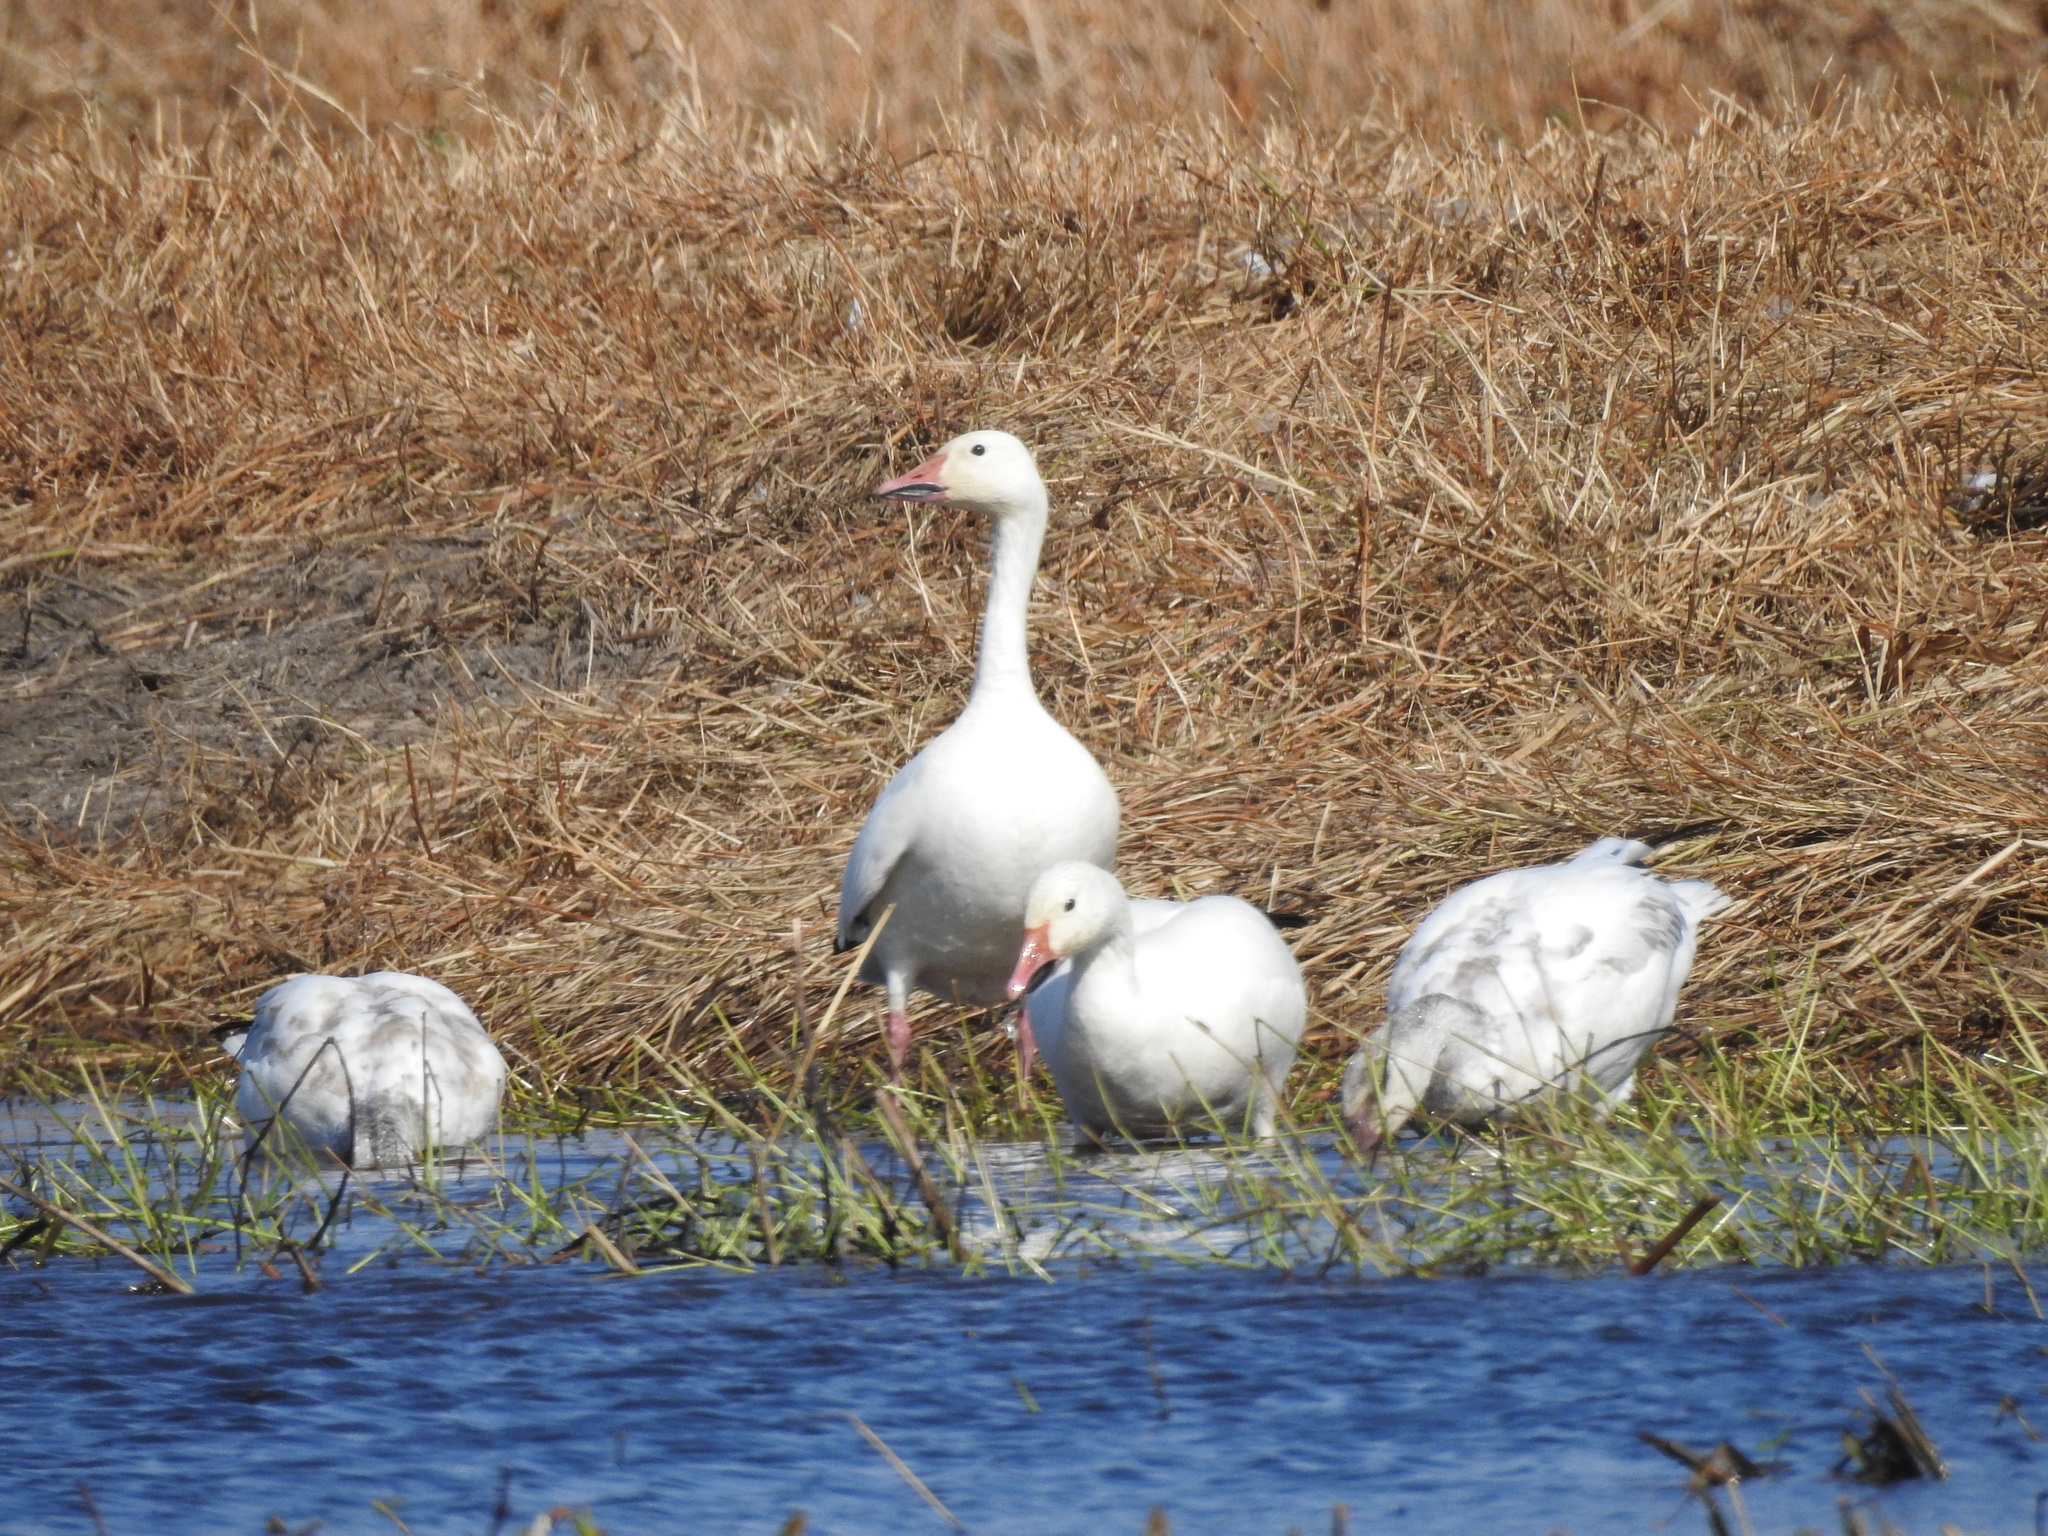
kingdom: Animalia
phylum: Chordata
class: Aves
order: Anseriformes
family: Anatidae
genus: Anser
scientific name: Anser caerulescens
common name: Snow goose
